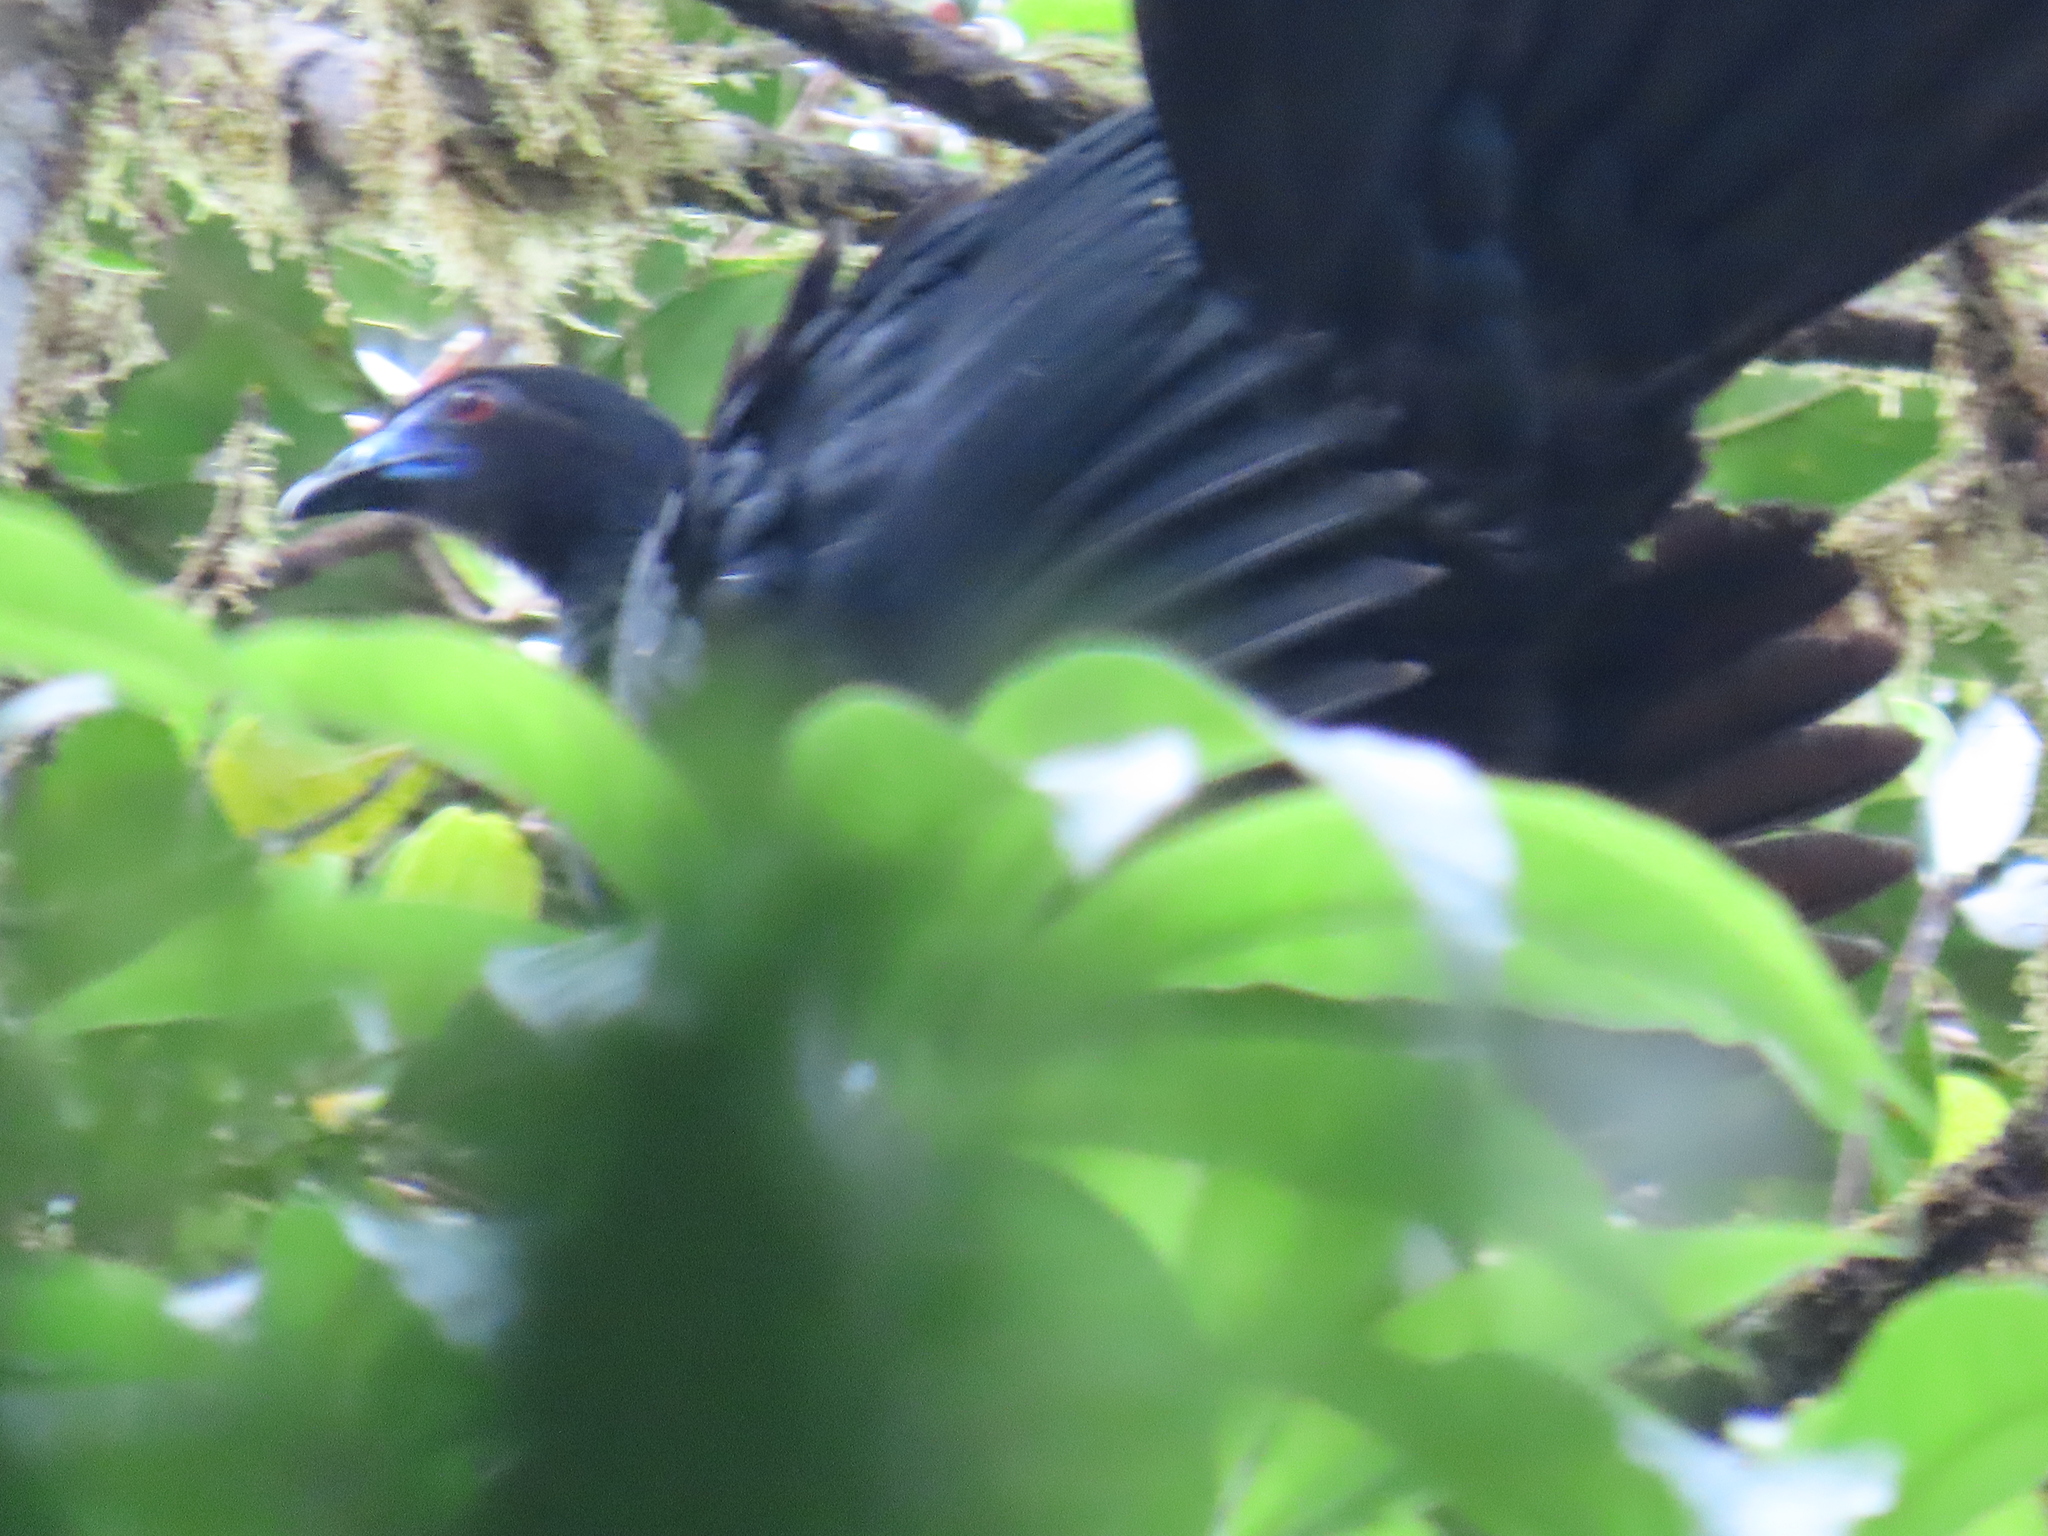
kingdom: Animalia
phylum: Chordata
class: Aves
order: Galliformes
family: Cracidae
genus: Chamaepetes
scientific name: Chamaepetes unicolor
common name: Black guan
